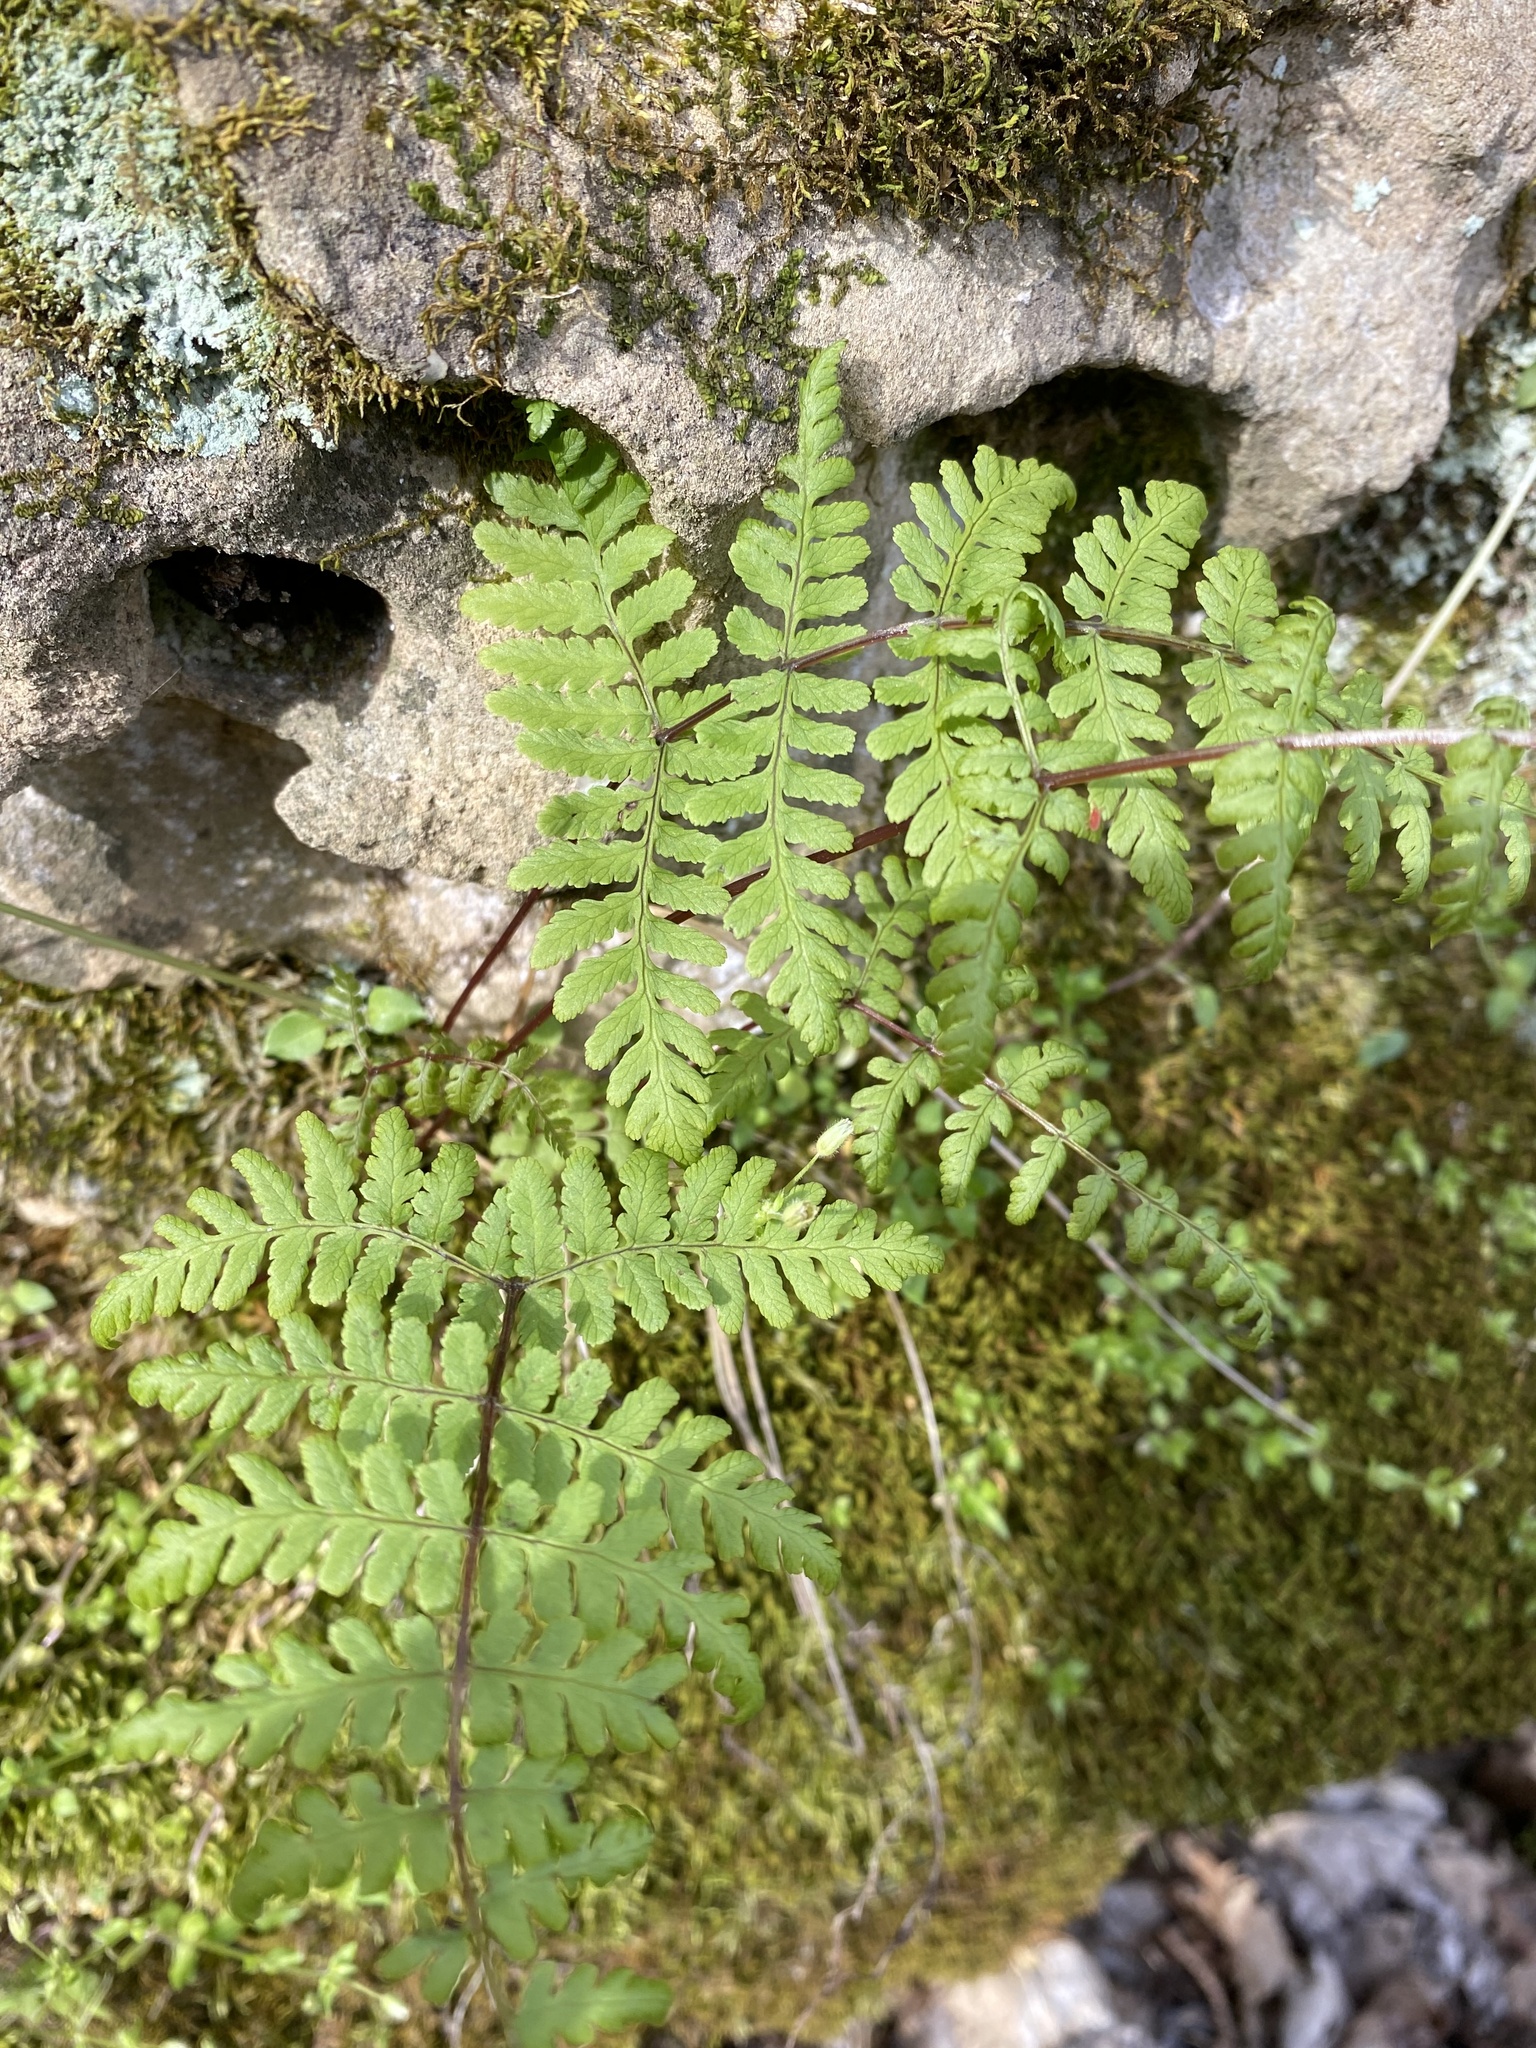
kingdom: Plantae
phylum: Tracheophyta
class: Polypodiopsida
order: Polypodiales
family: Cystopteridaceae
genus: Cystopteris
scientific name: Cystopteris bulbifera
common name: Bulblet bladder fern
